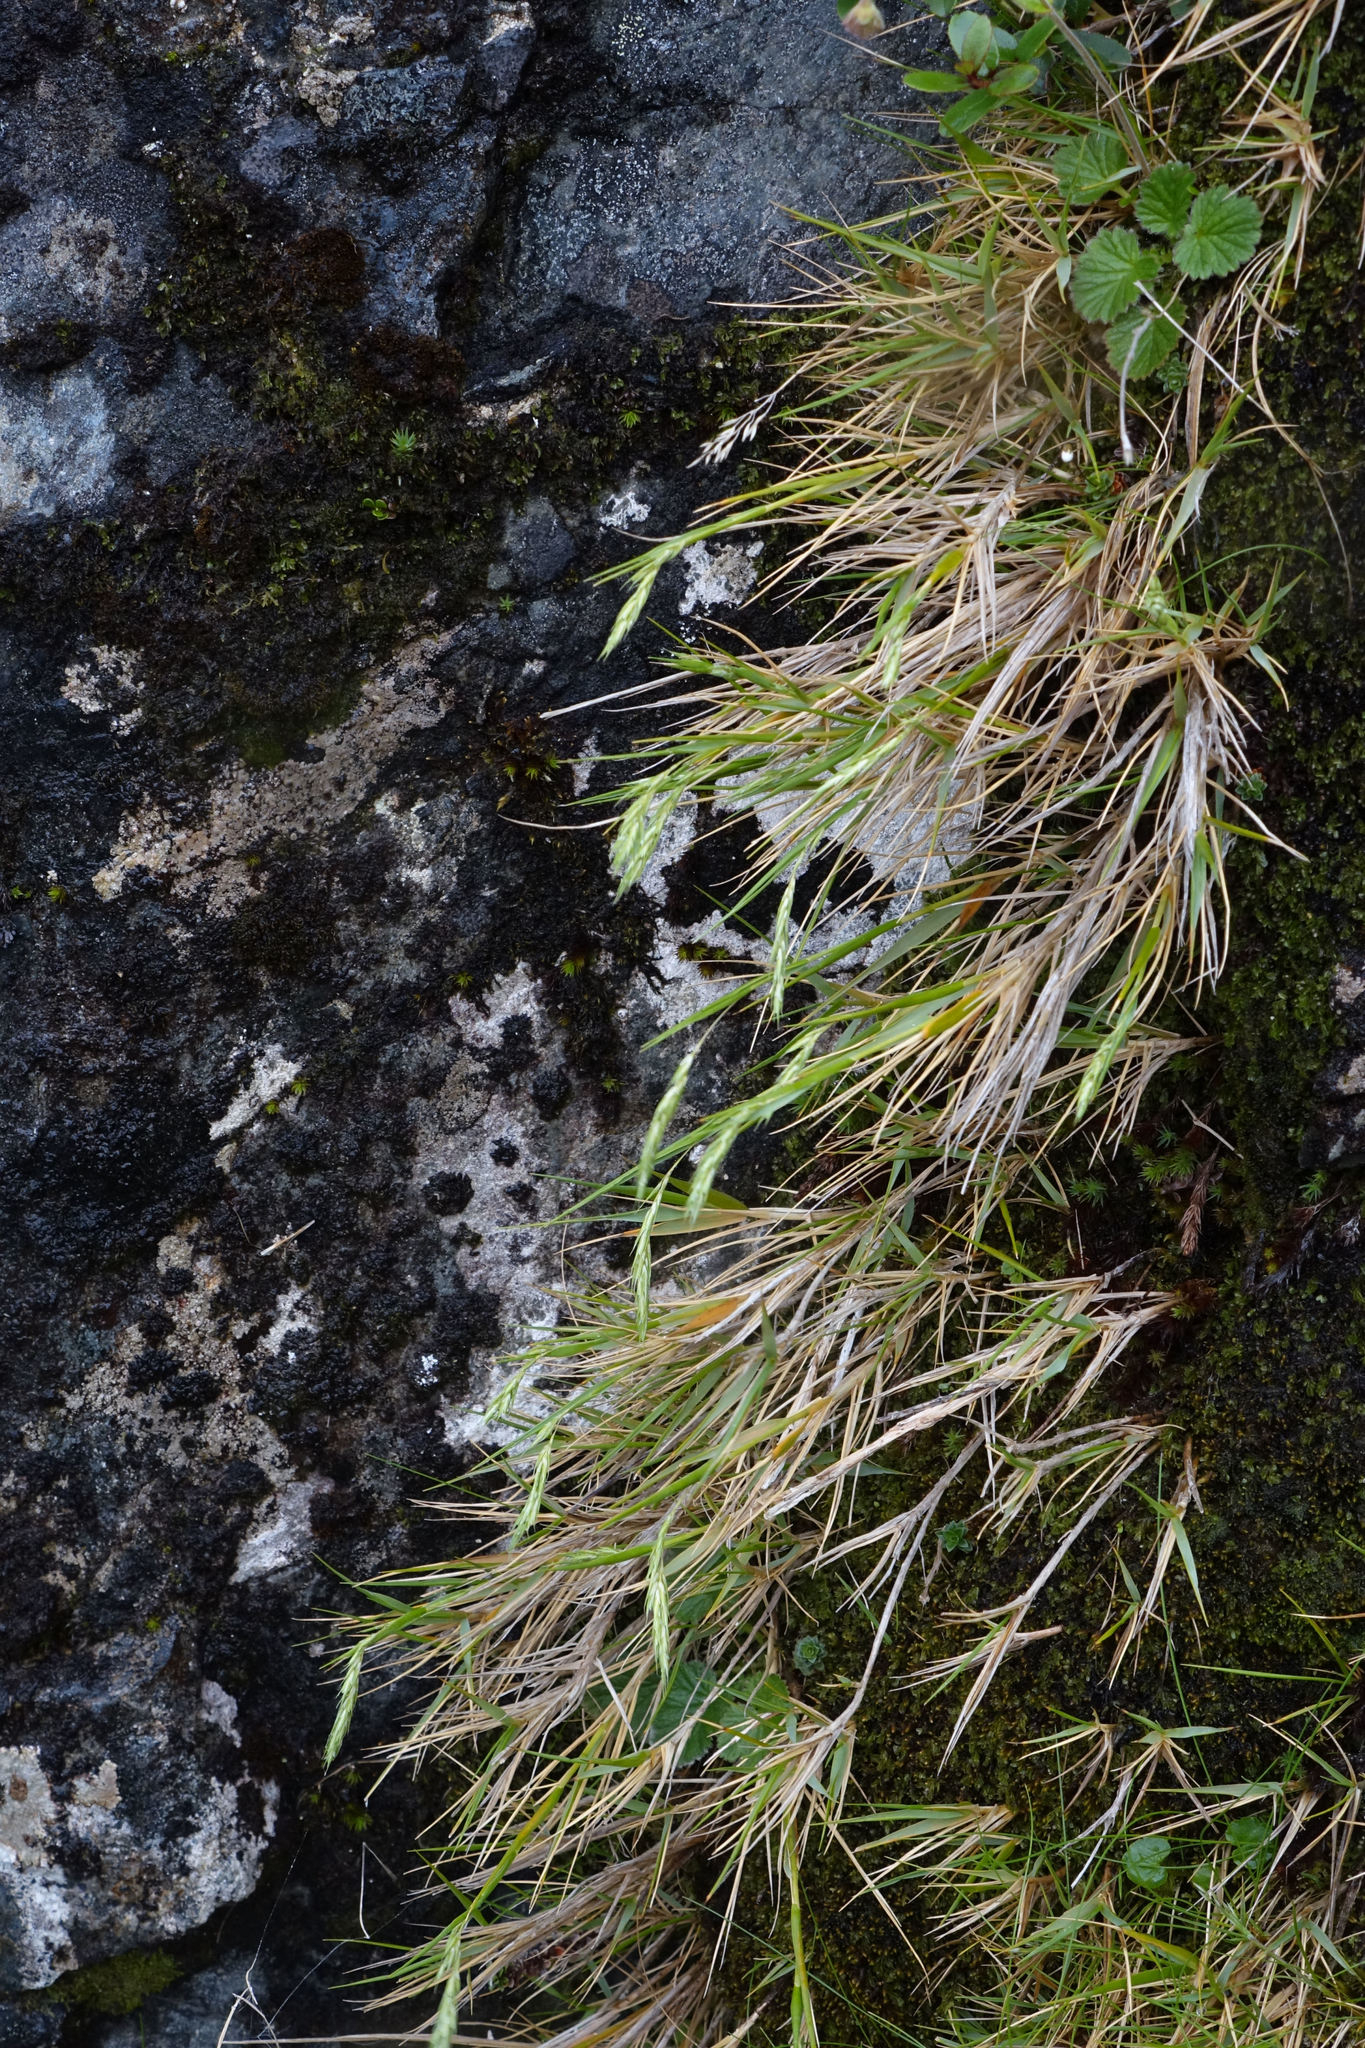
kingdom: Plantae
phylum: Tracheophyta
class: Liliopsida
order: Poales
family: Poaceae
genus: Zotovia
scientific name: Zotovia colensoi
